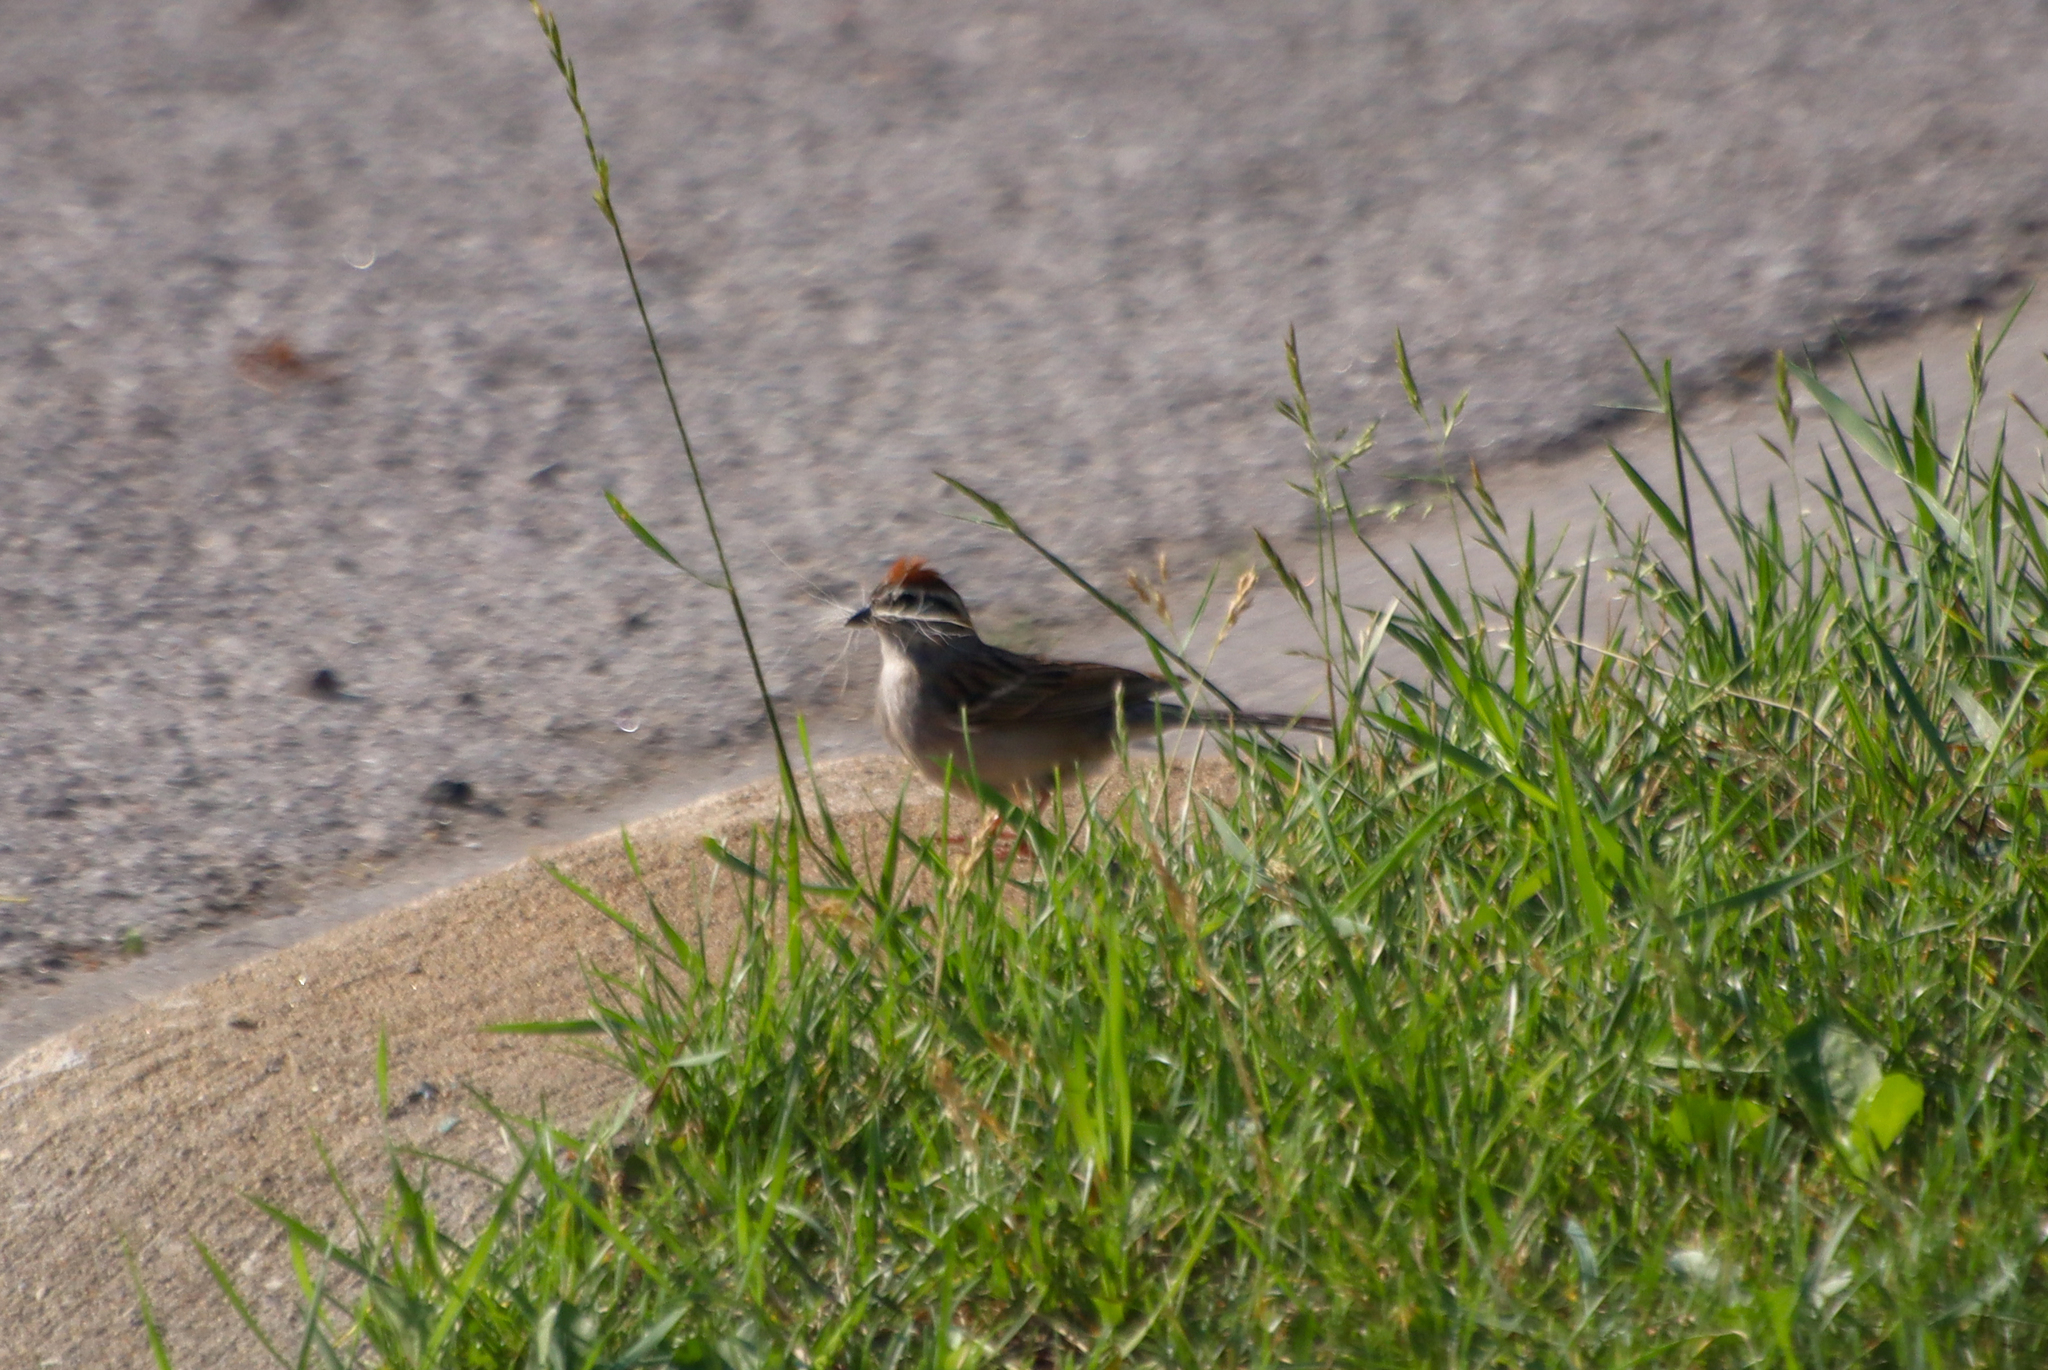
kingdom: Animalia
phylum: Chordata
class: Aves
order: Passeriformes
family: Passerellidae
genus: Spizella
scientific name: Spizella passerina
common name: Chipping sparrow
